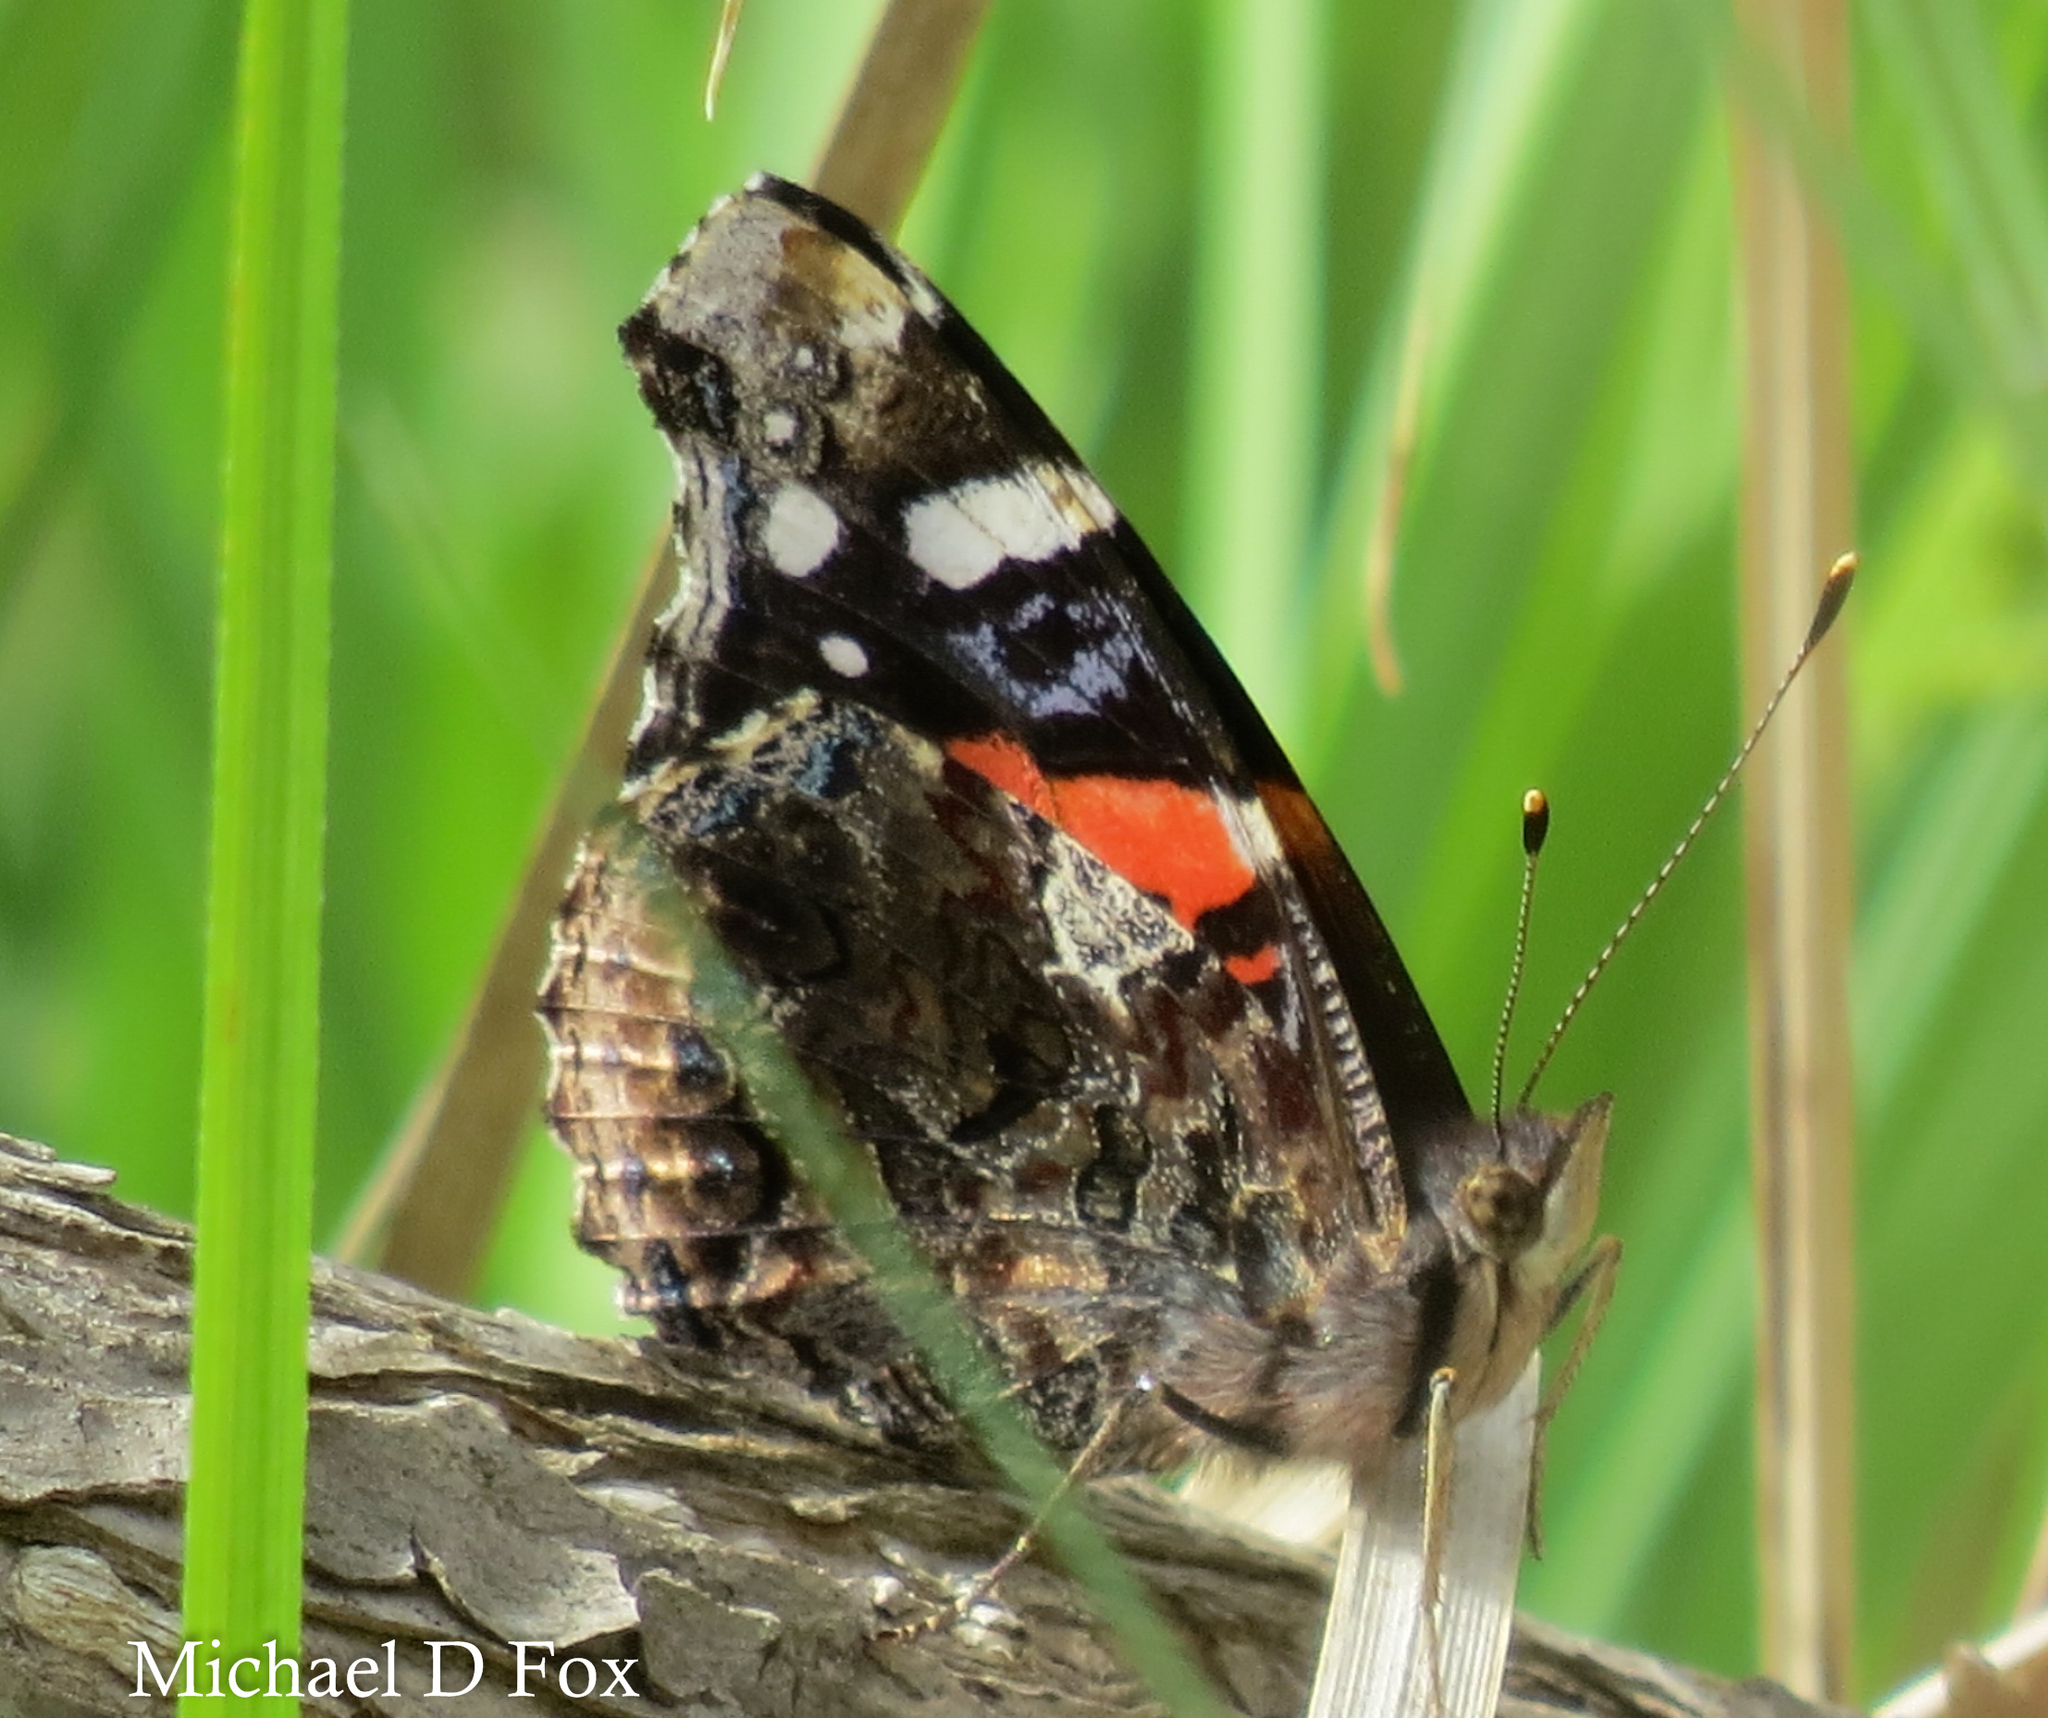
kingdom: Animalia
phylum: Arthropoda
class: Insecta
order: Lepidoptera
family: Nymphalidae
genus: Vanessa
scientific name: Vanessa atalanta
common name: Red admiral
